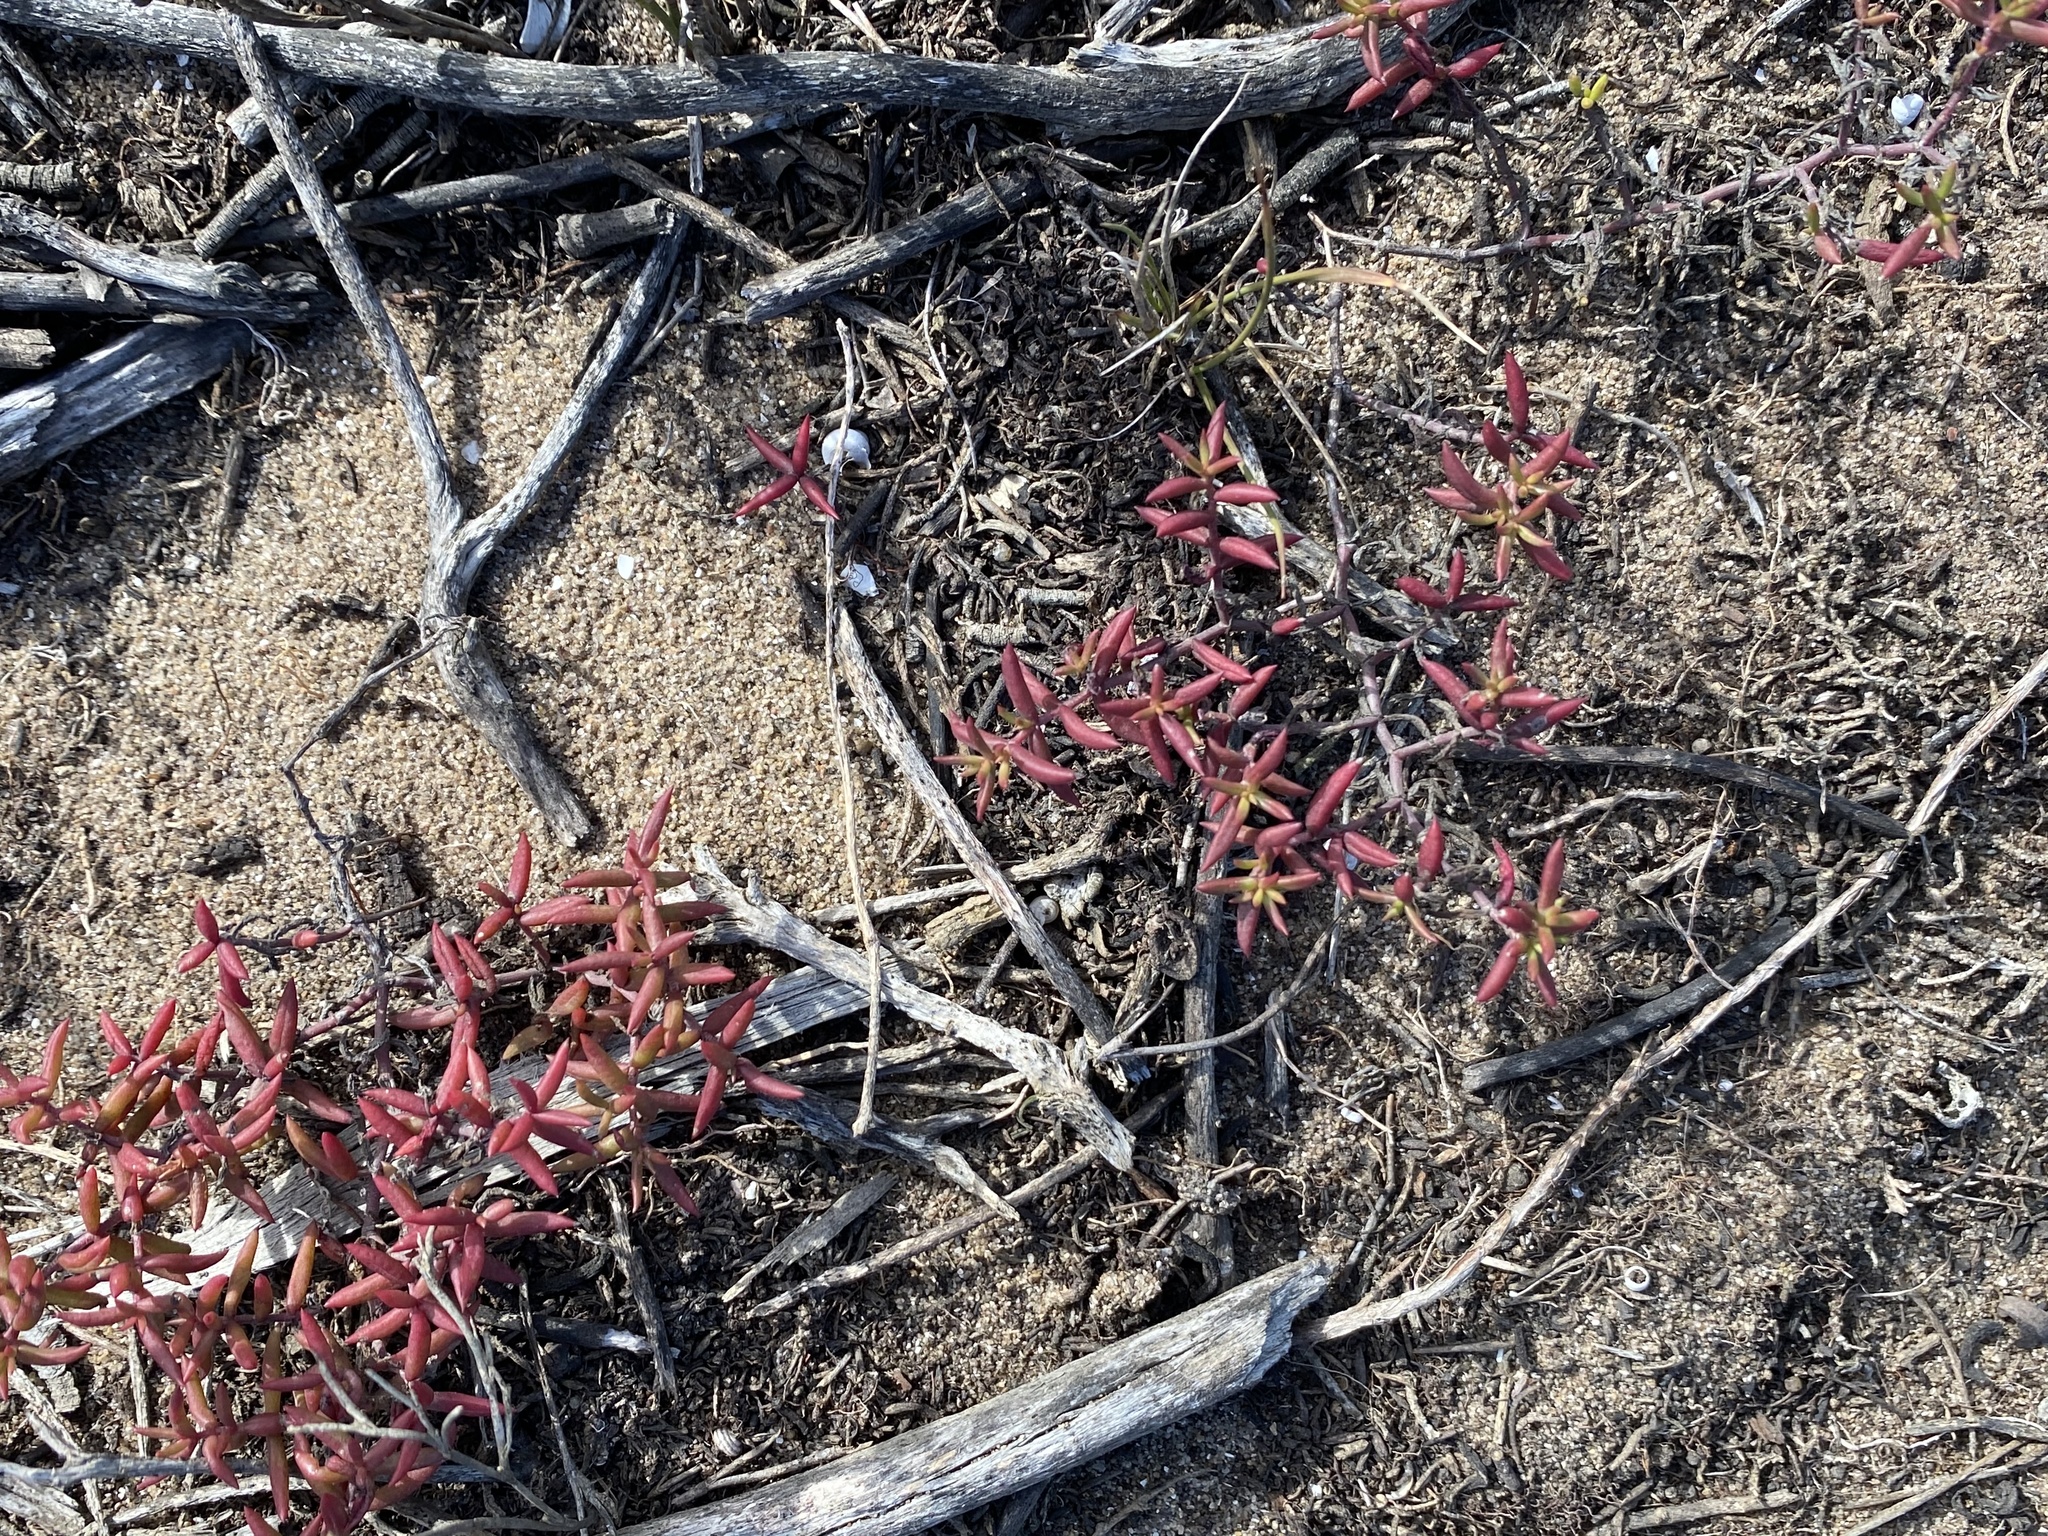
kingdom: Plantae
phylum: Tracheophyta
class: Magnoliopsida
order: Saxifragales
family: Crassulaceae
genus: Crassula
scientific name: Crassula expansa
